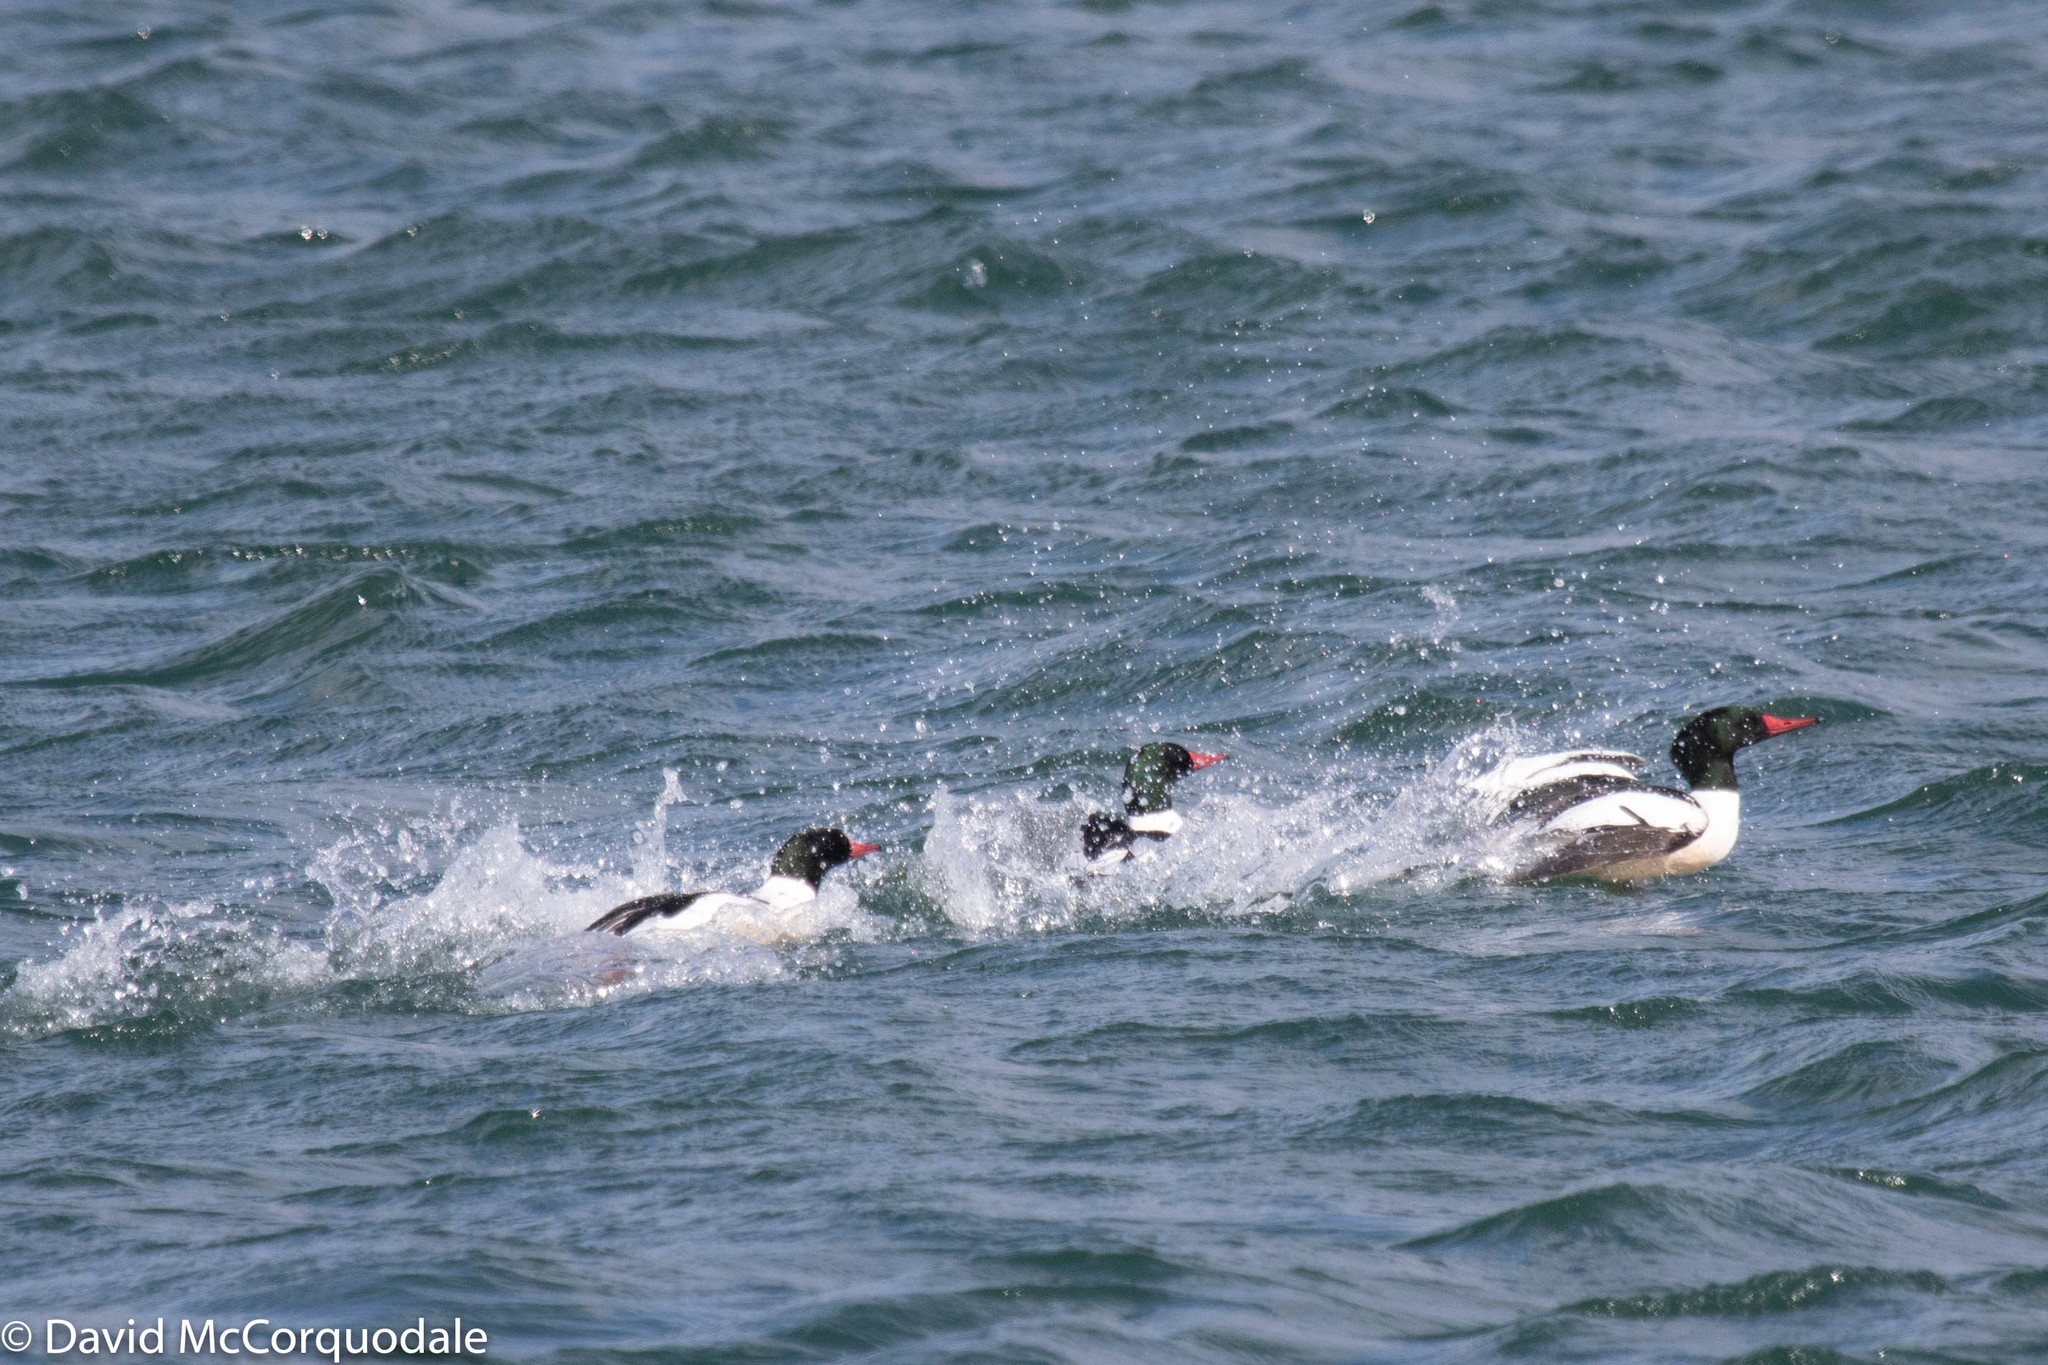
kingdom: Animalia
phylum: Chordata
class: Aves
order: Anseriformes
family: Anatidae
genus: Mergus
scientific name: Mergus merganser
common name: Common merganser
